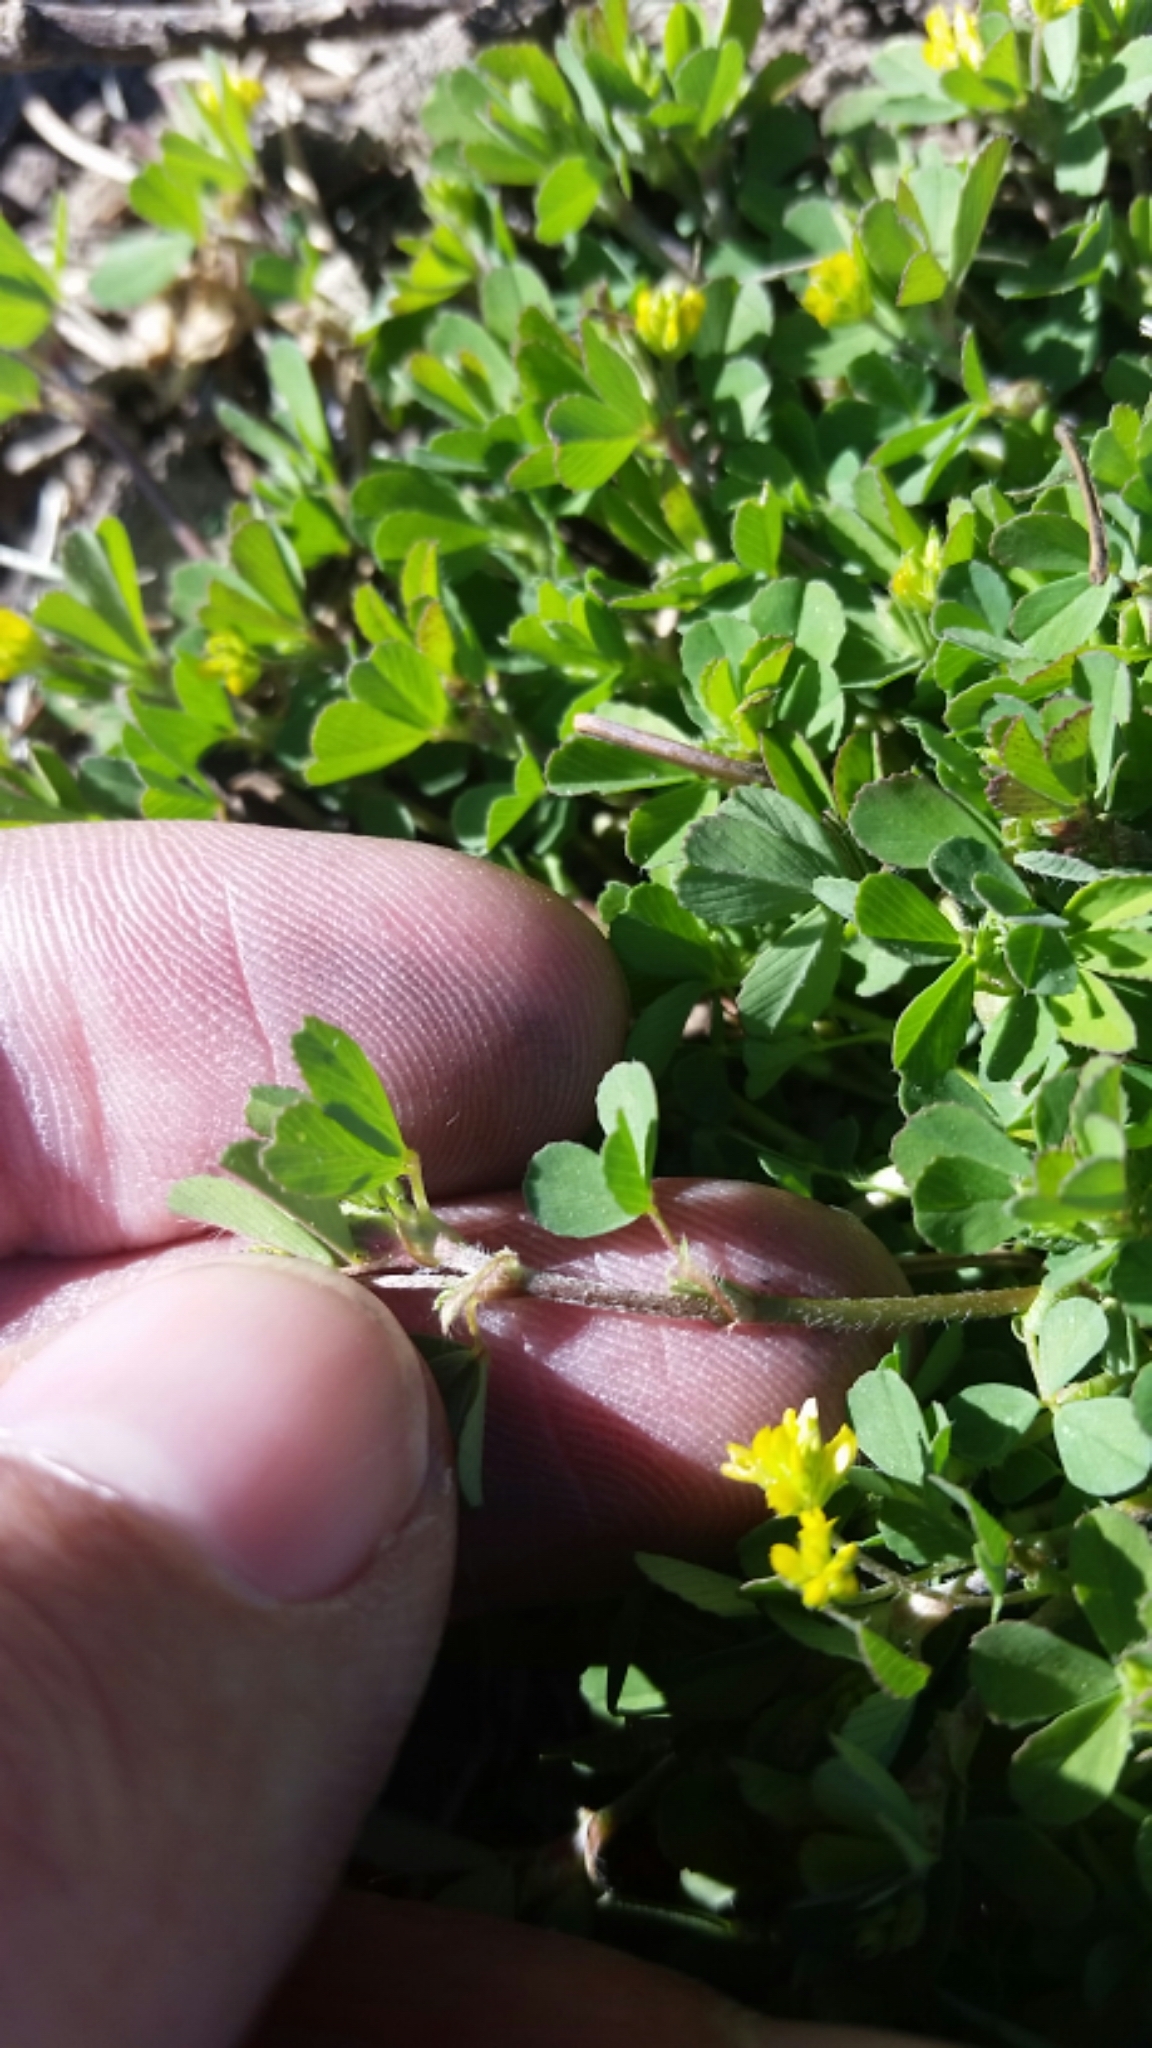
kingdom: Plantae
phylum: Tracheophyta
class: Magnoliopsida
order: Fabales
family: Fabaceae
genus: Trifolium
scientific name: Trifolium dubium
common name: Suckling clover
